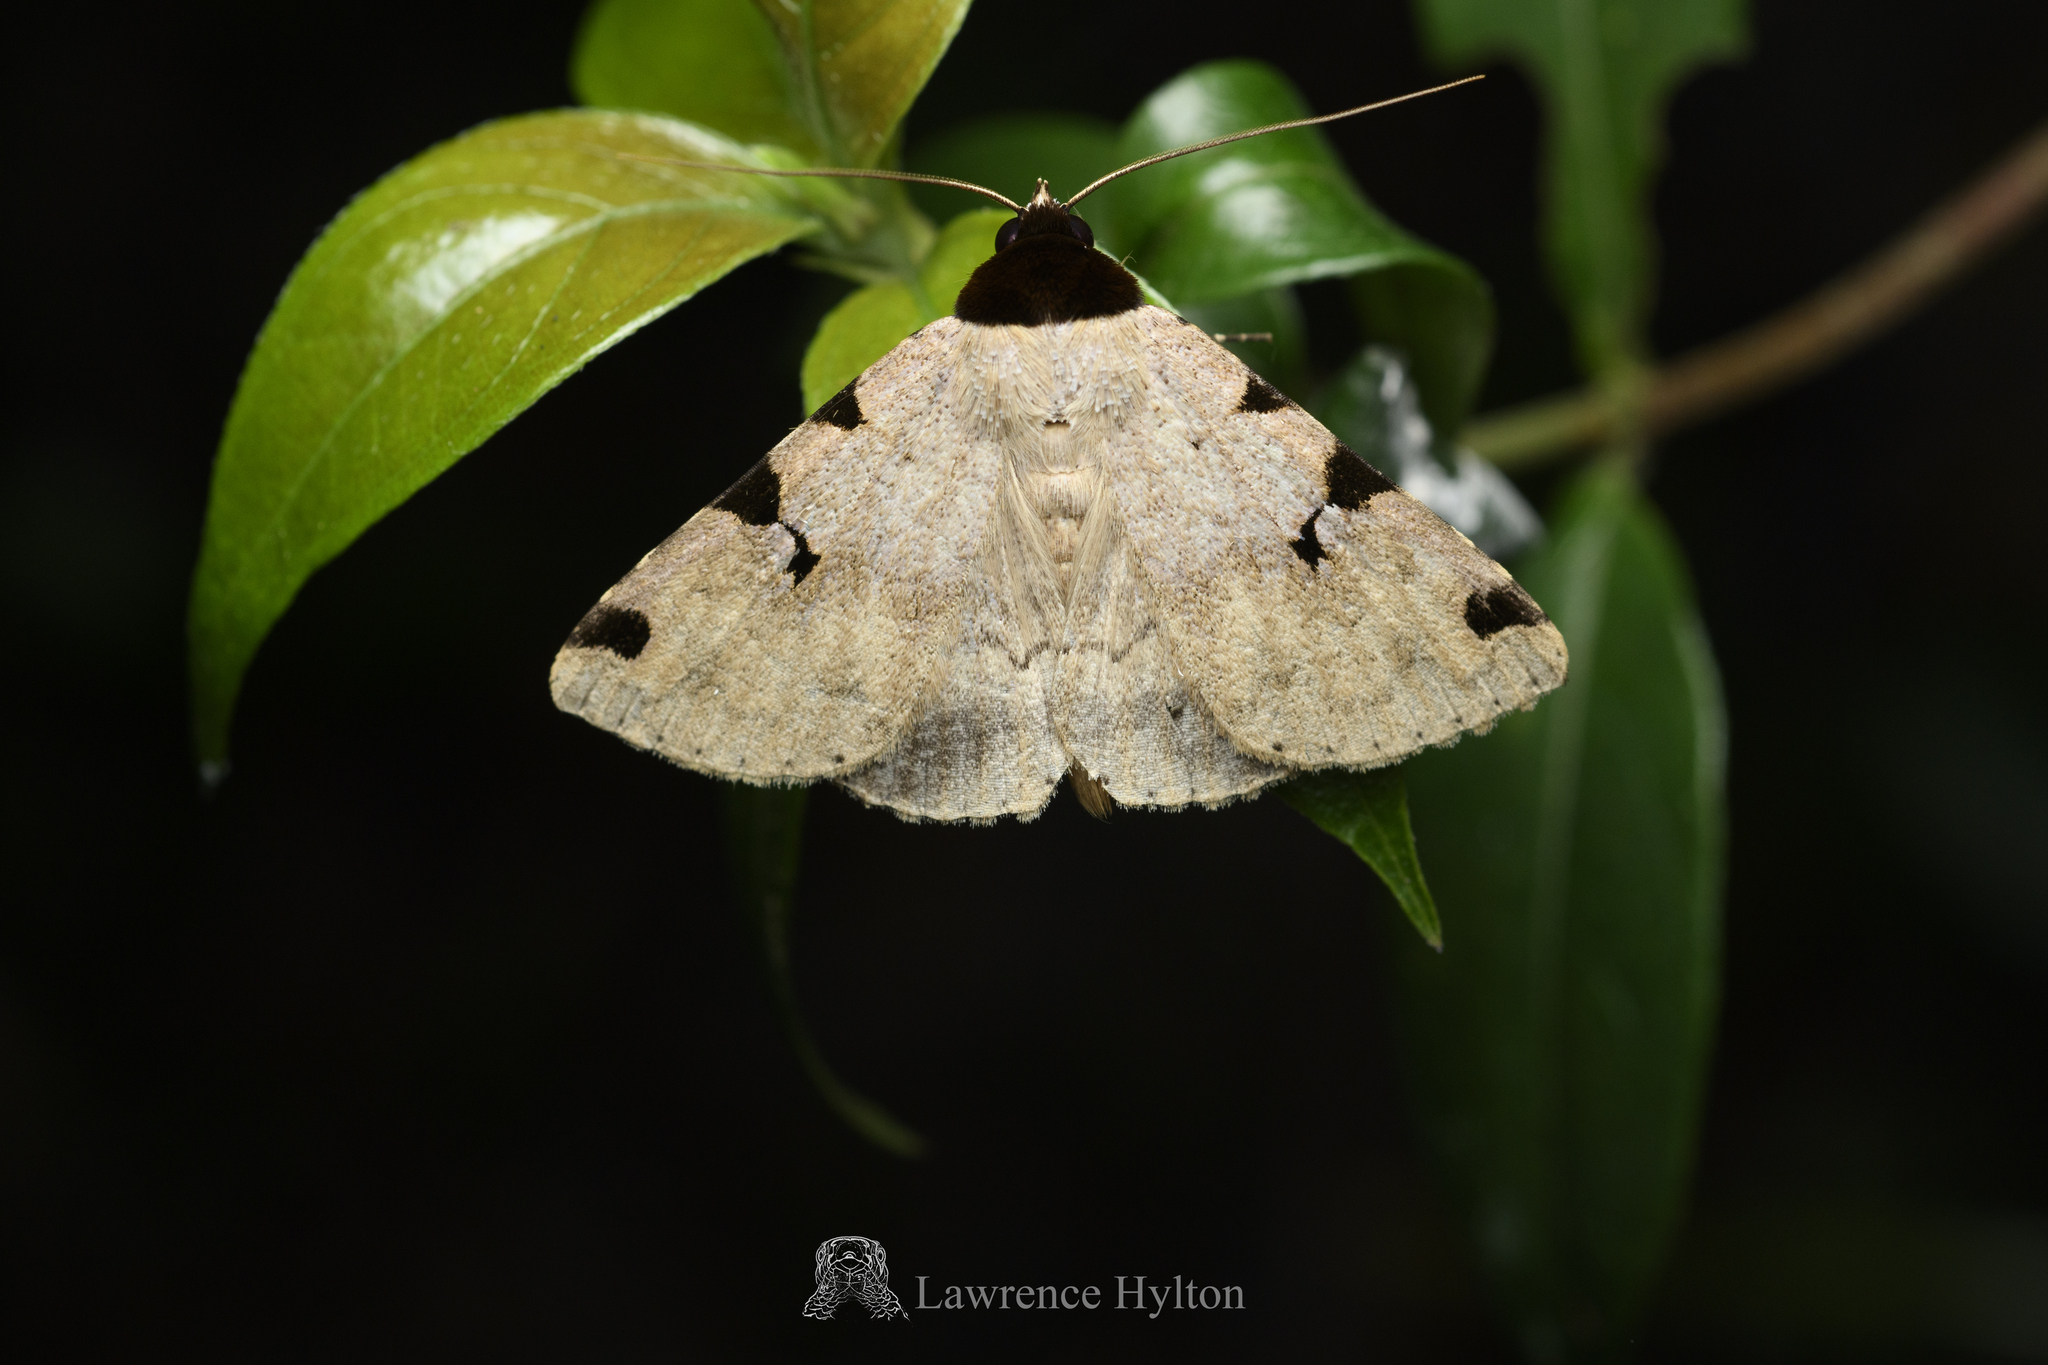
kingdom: Animalia
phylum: Arthropoda
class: Insecta
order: Lepidoptera
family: Erebidae
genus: Rema
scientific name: Rema costimacula
